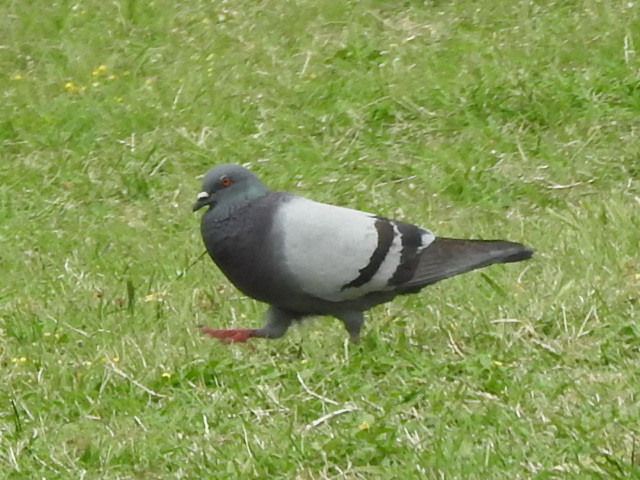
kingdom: Animalia
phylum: Chordata
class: Aves
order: Columbiformes
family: Columbidae
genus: Columba
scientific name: Columba livia
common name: Rock pigeon
